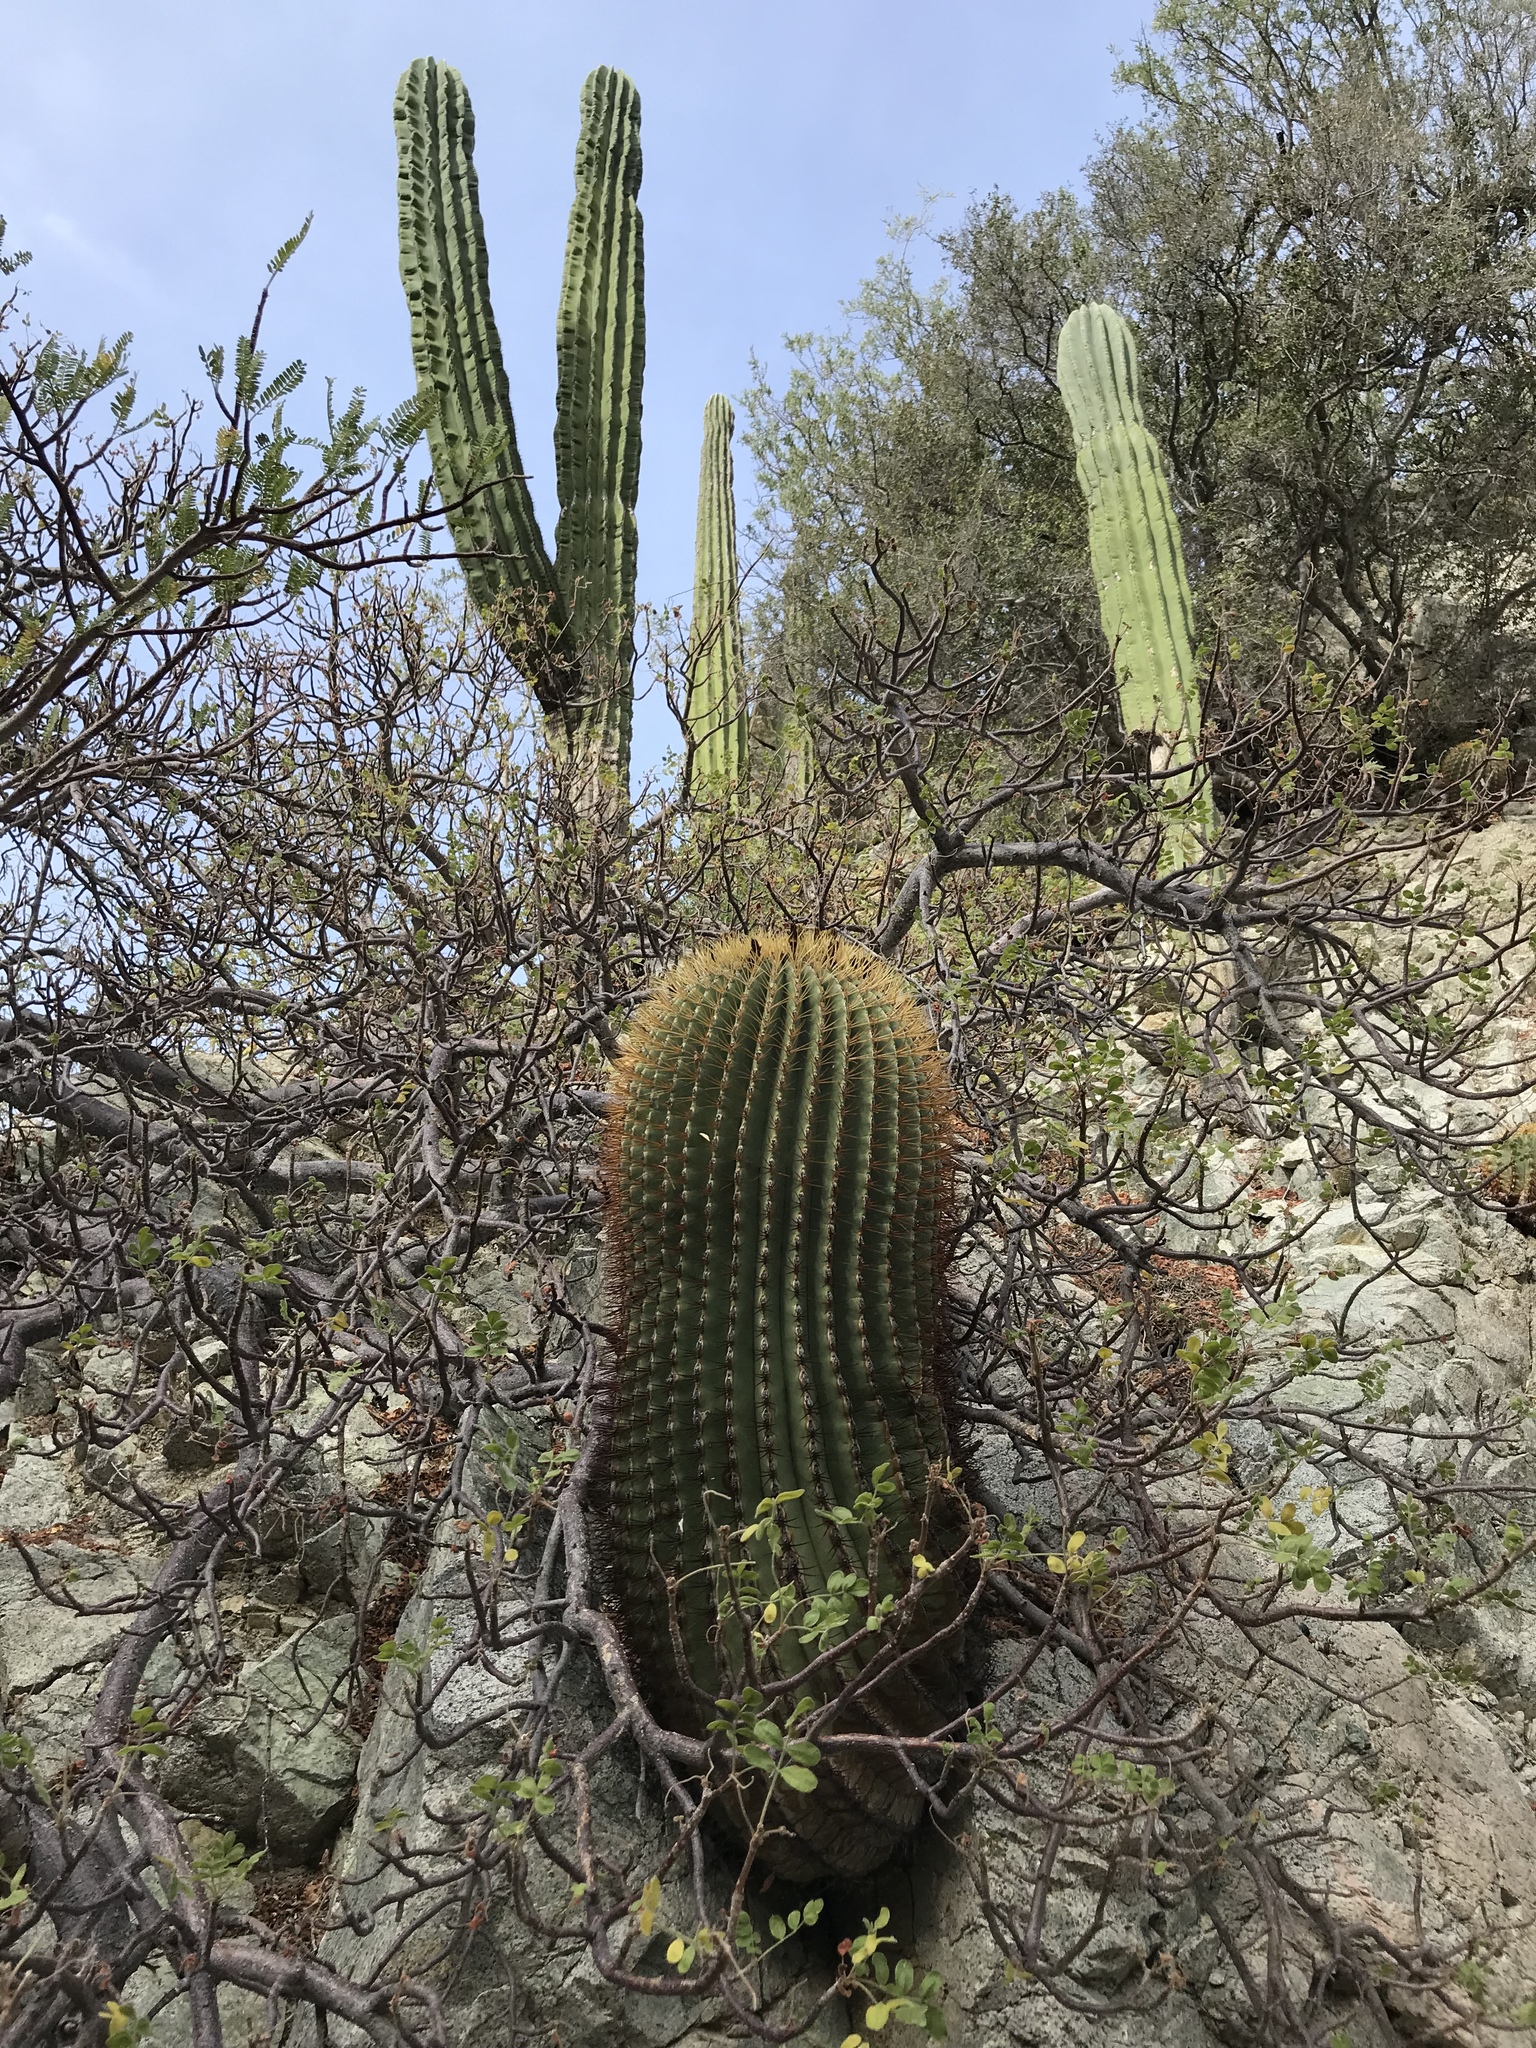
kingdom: Plantae
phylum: Tracheophyta
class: Magnoliopsida
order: Caryophyllales
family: Cactaceae
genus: Ferocactus
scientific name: Ferocactus diguetii
